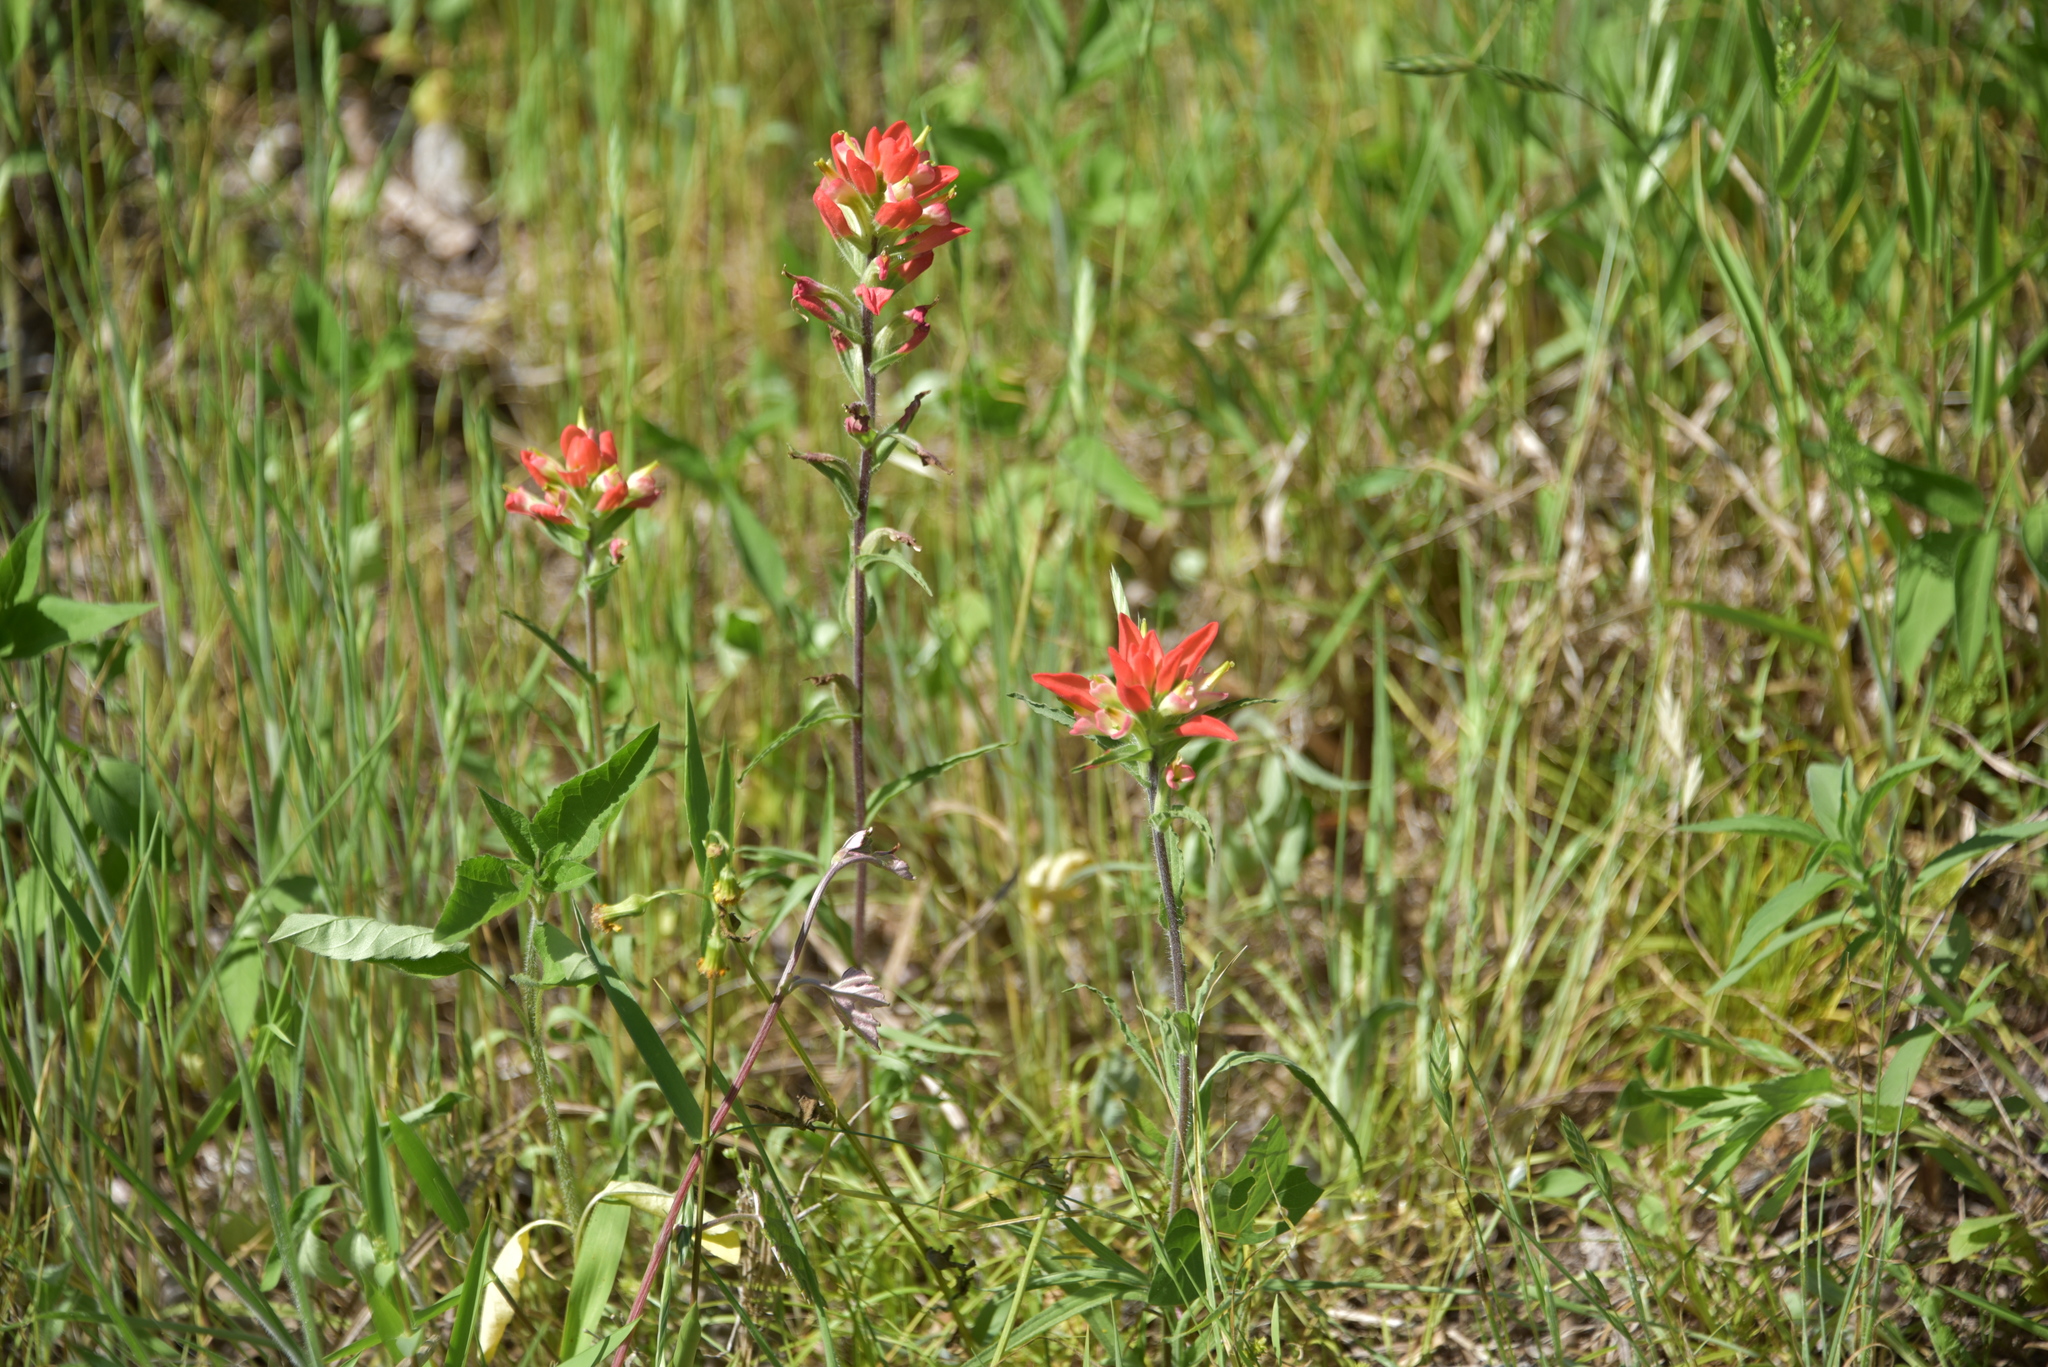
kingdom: Plantae
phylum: Tracheophyta
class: Magnoliopsida
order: Lamiales
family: Orobanchaceae
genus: Castilleja
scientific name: Castilleja indivisa
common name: Texas paintbrush
